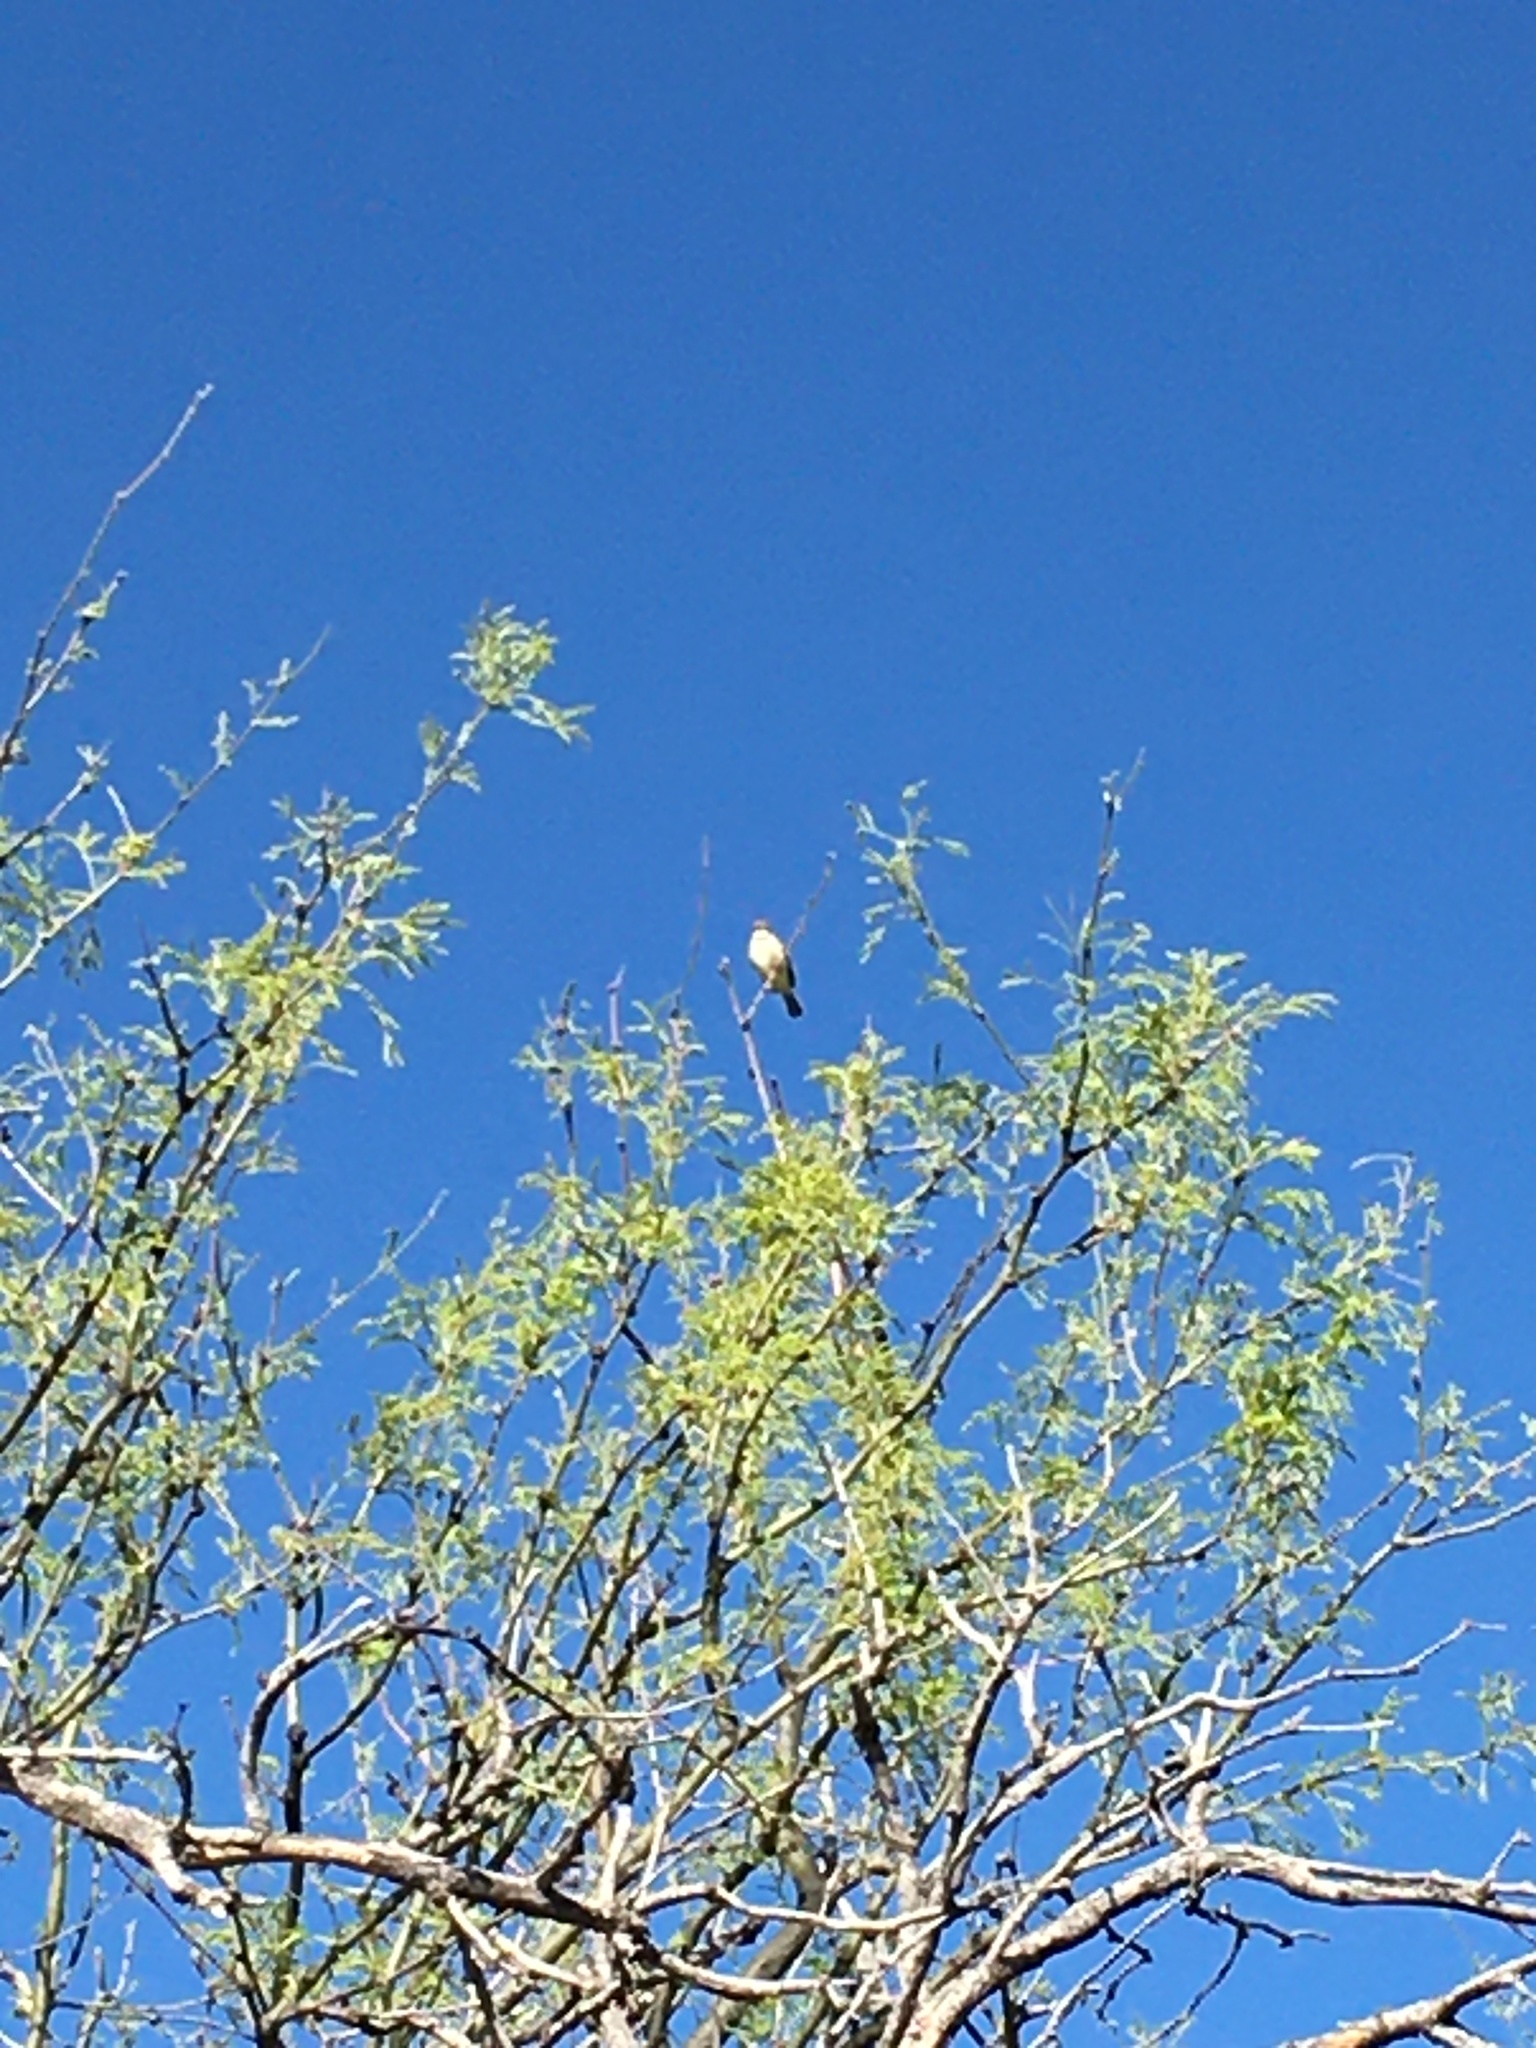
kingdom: Animalia
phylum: Chordata
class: Aves
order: Passeriformes
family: Tyrannidae
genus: Camptostoma
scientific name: Camptostoma imberbe
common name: Northern beardless-tyrannulet
